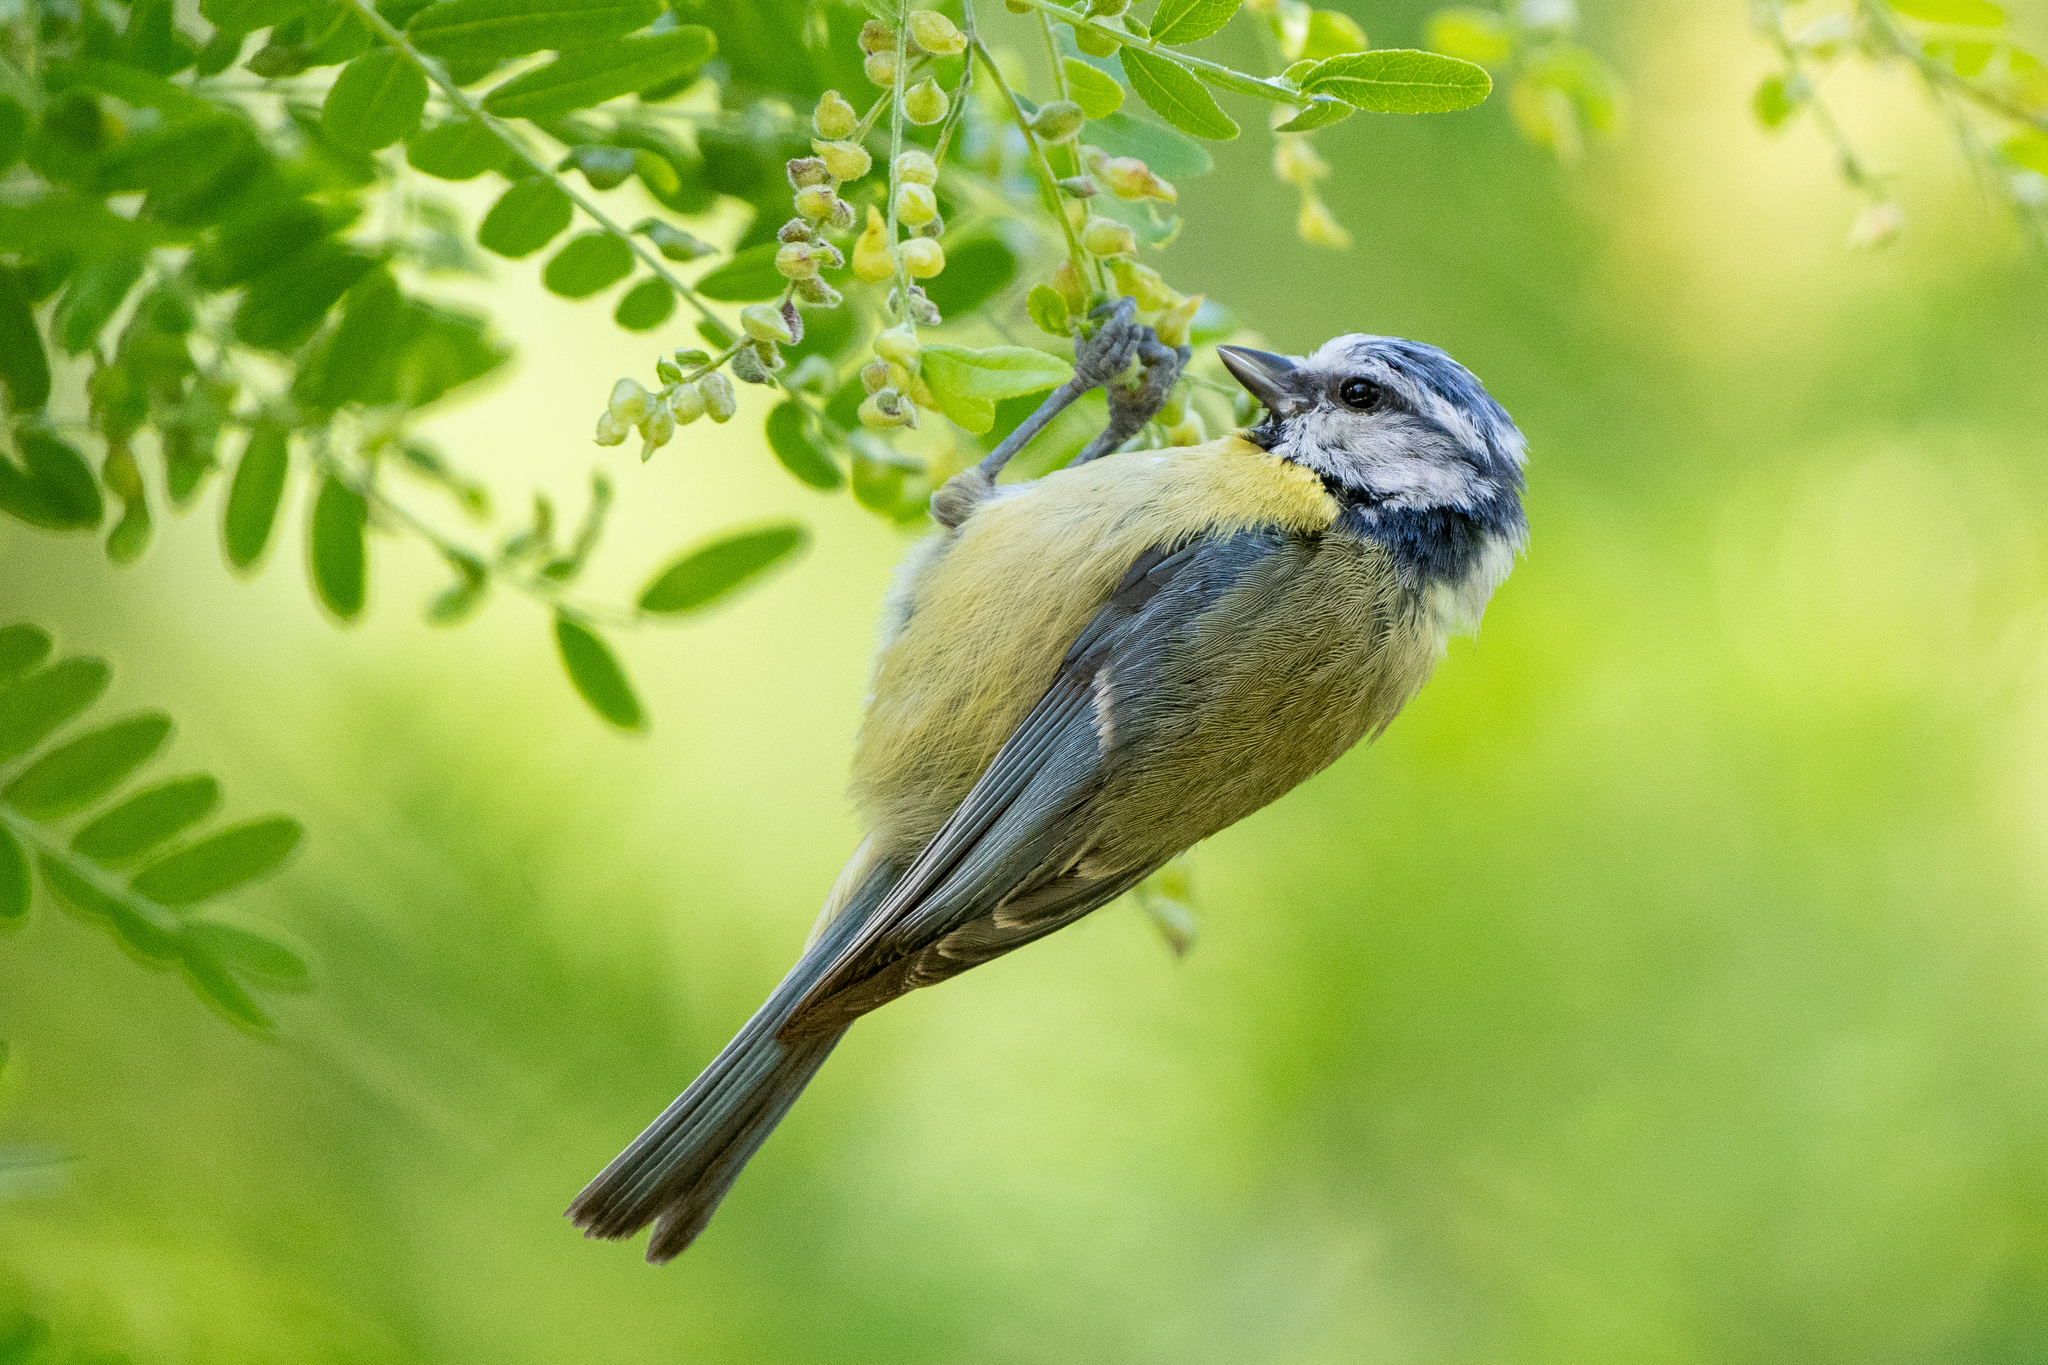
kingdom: Animalia
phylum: Chordata
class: Aves
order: Passeriformes
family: Paridae
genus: Cyanistes
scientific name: Cyanistes caeruleus
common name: Eurasian blue tit
